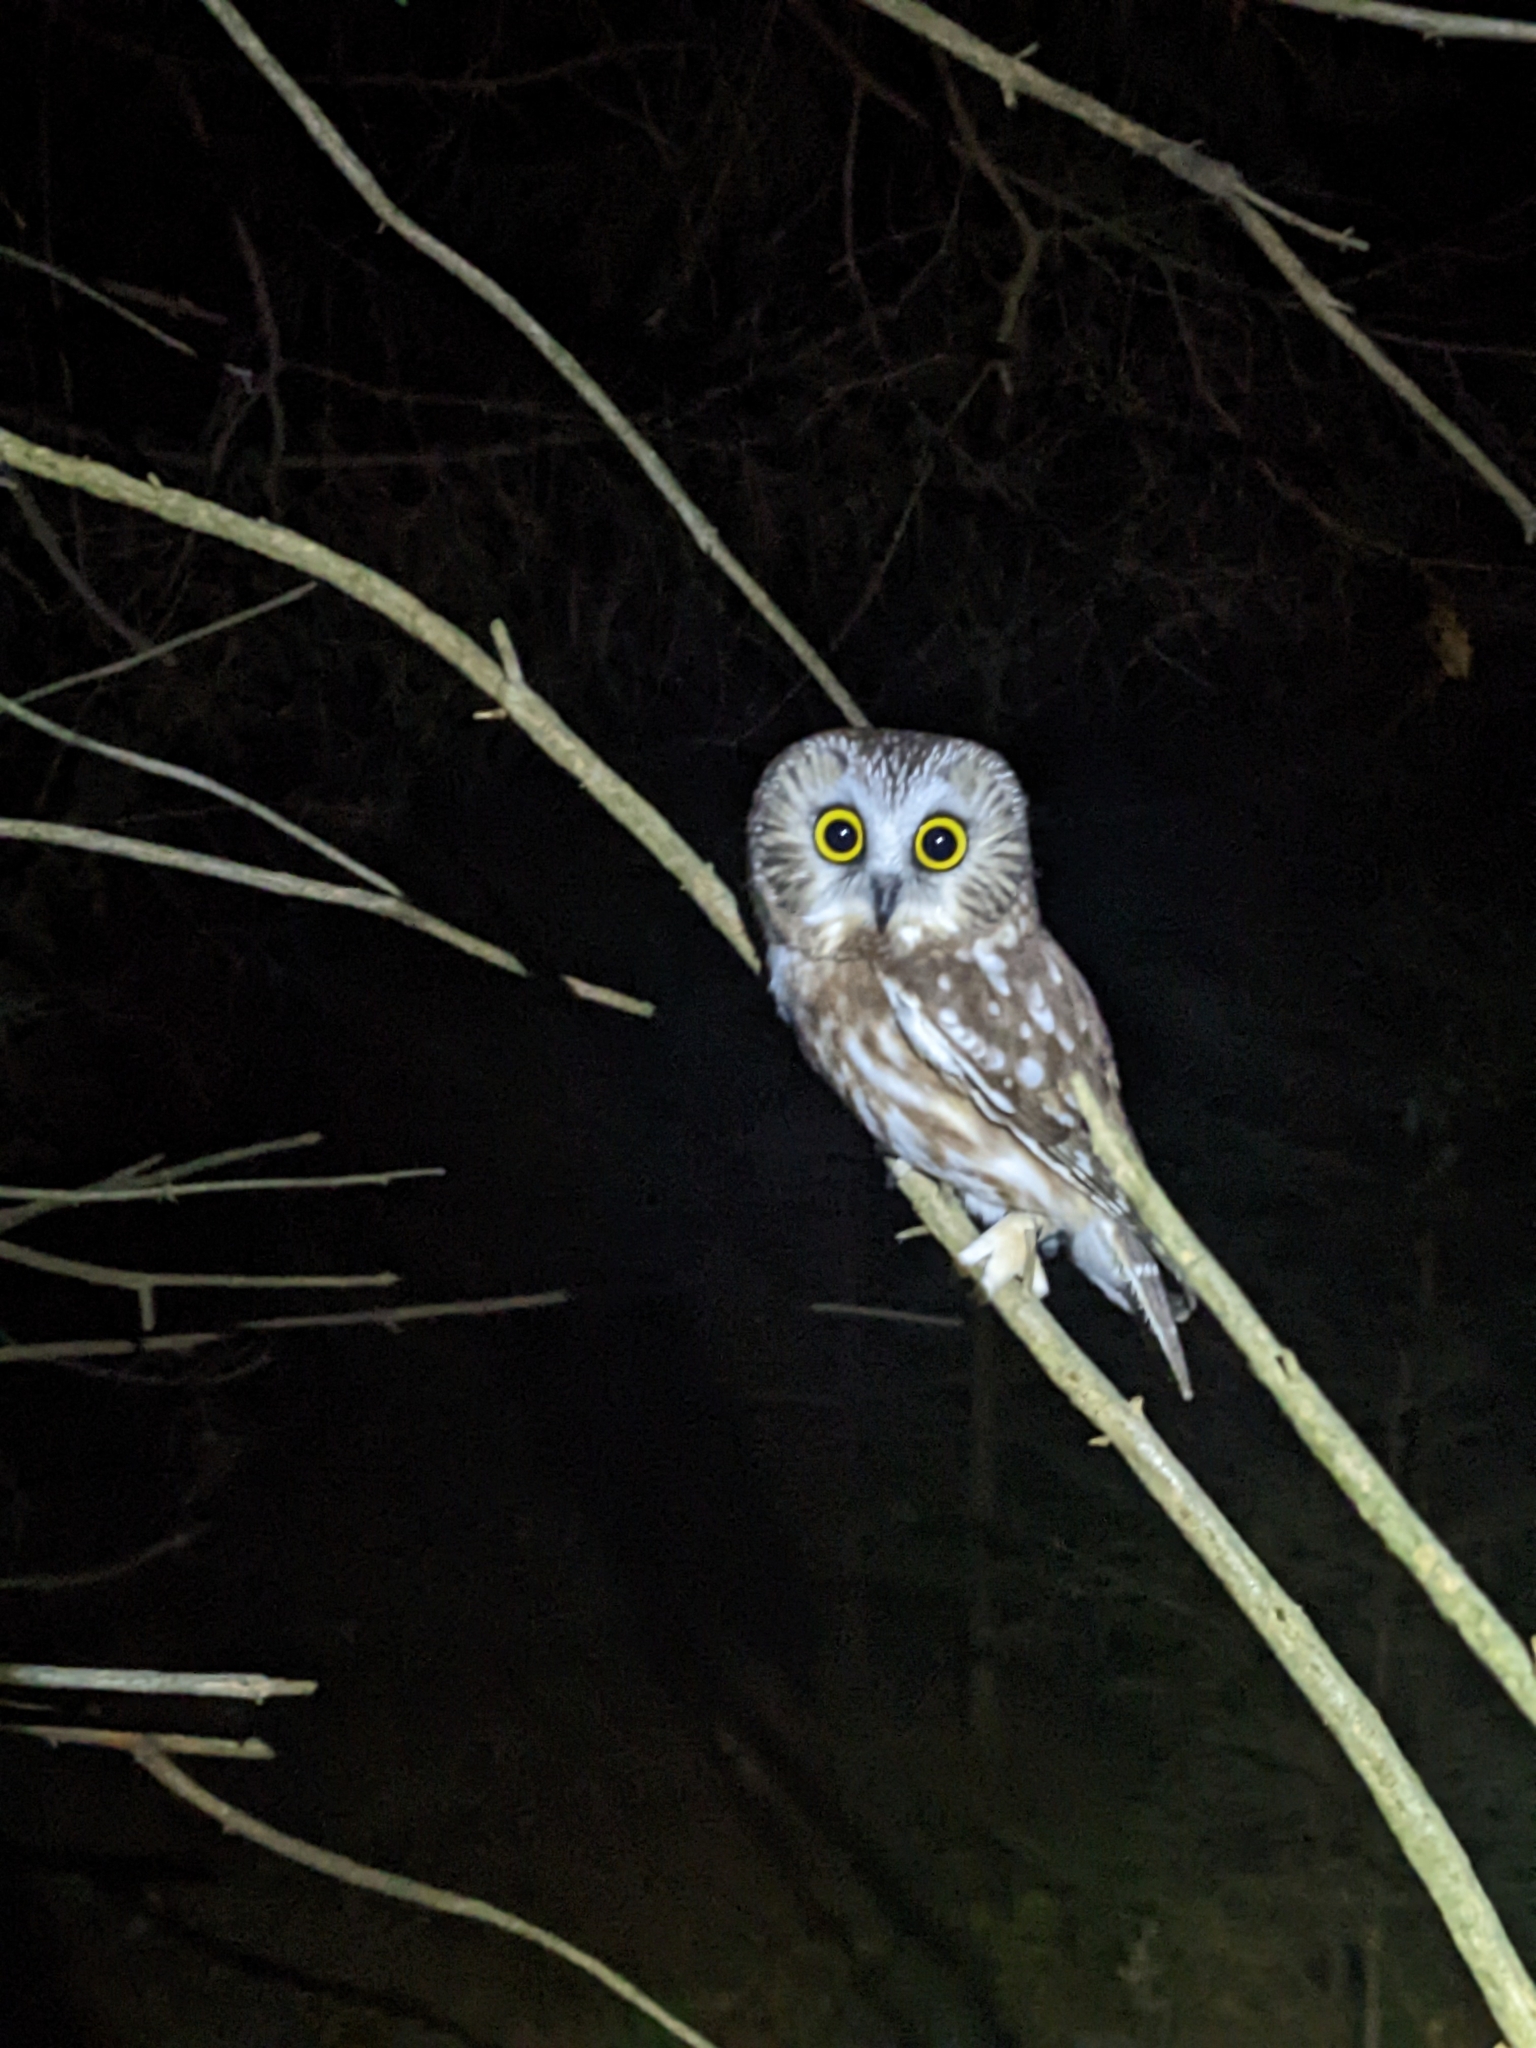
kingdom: Animalia
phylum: Chordata
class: Aves
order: Strigiformes
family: Strigidae
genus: Aegolius
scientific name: Aegolius acadicus
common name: Northern saw-whet owl
